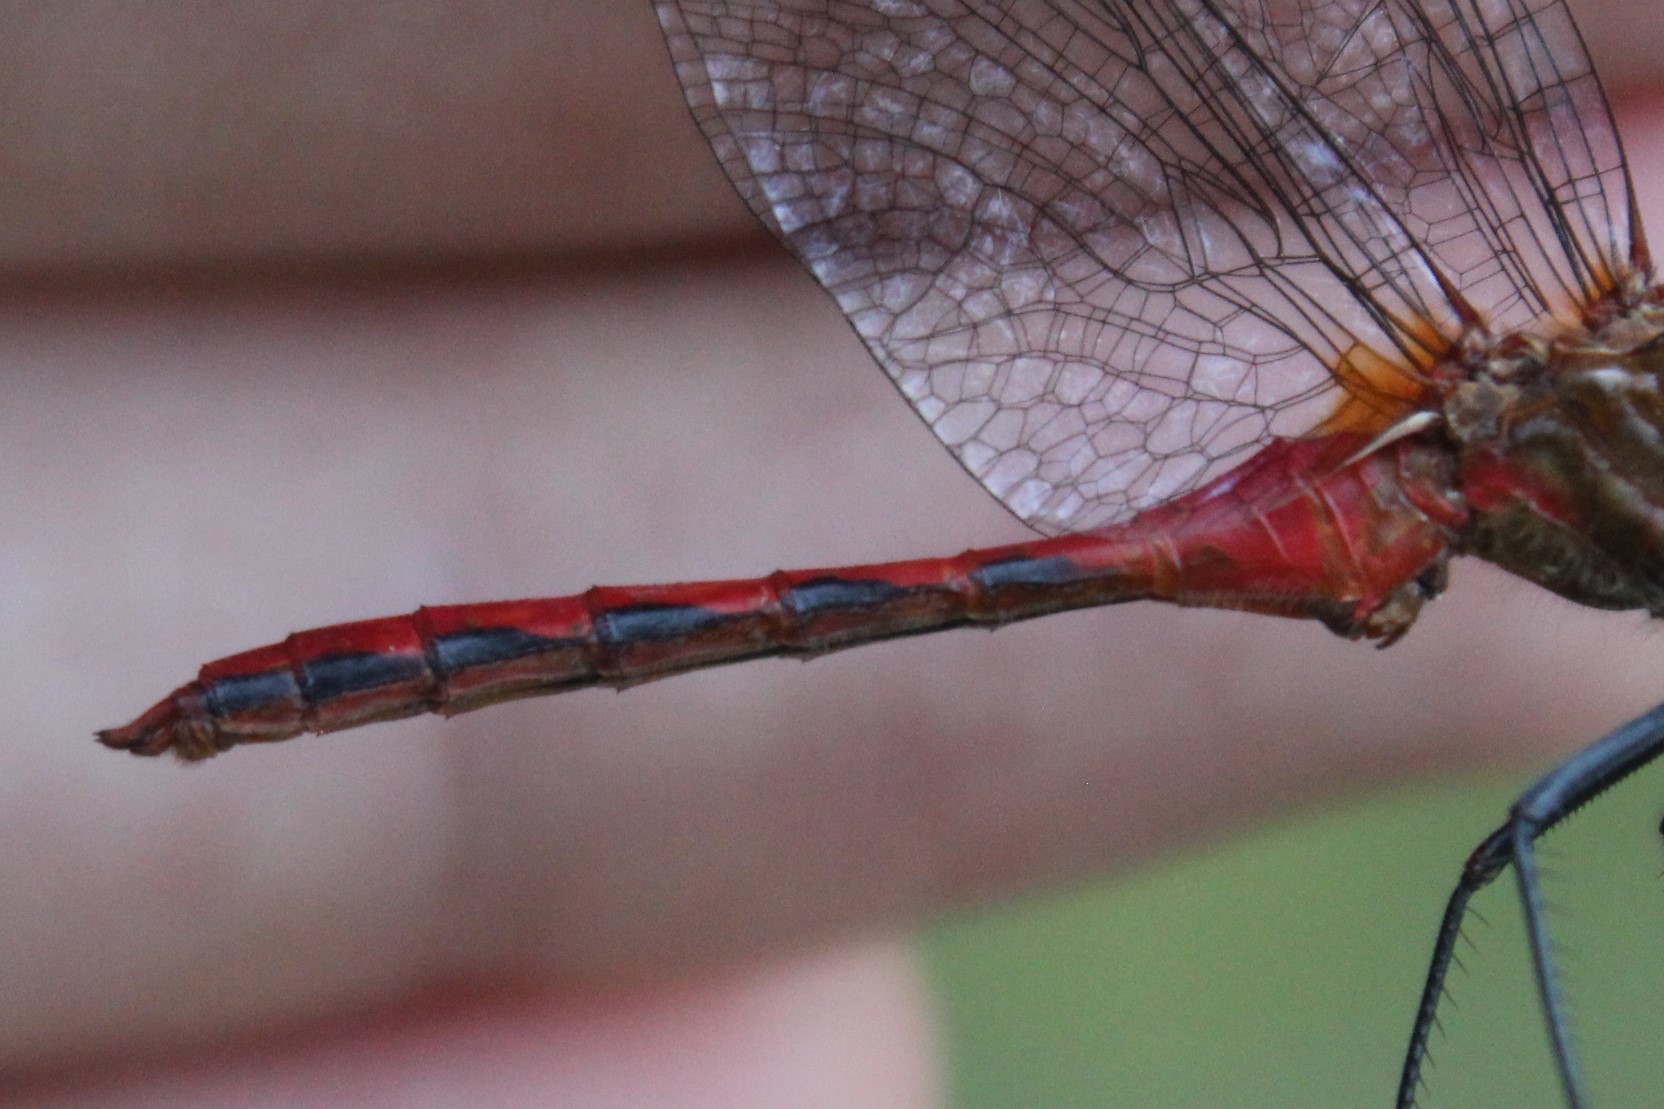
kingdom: Animalia
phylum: Arthropoda
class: Insecta
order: Odonata
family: Libellulidae
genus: Sympetrum
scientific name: Sympetrum rubicundulum
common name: Ruby meadowhawk
